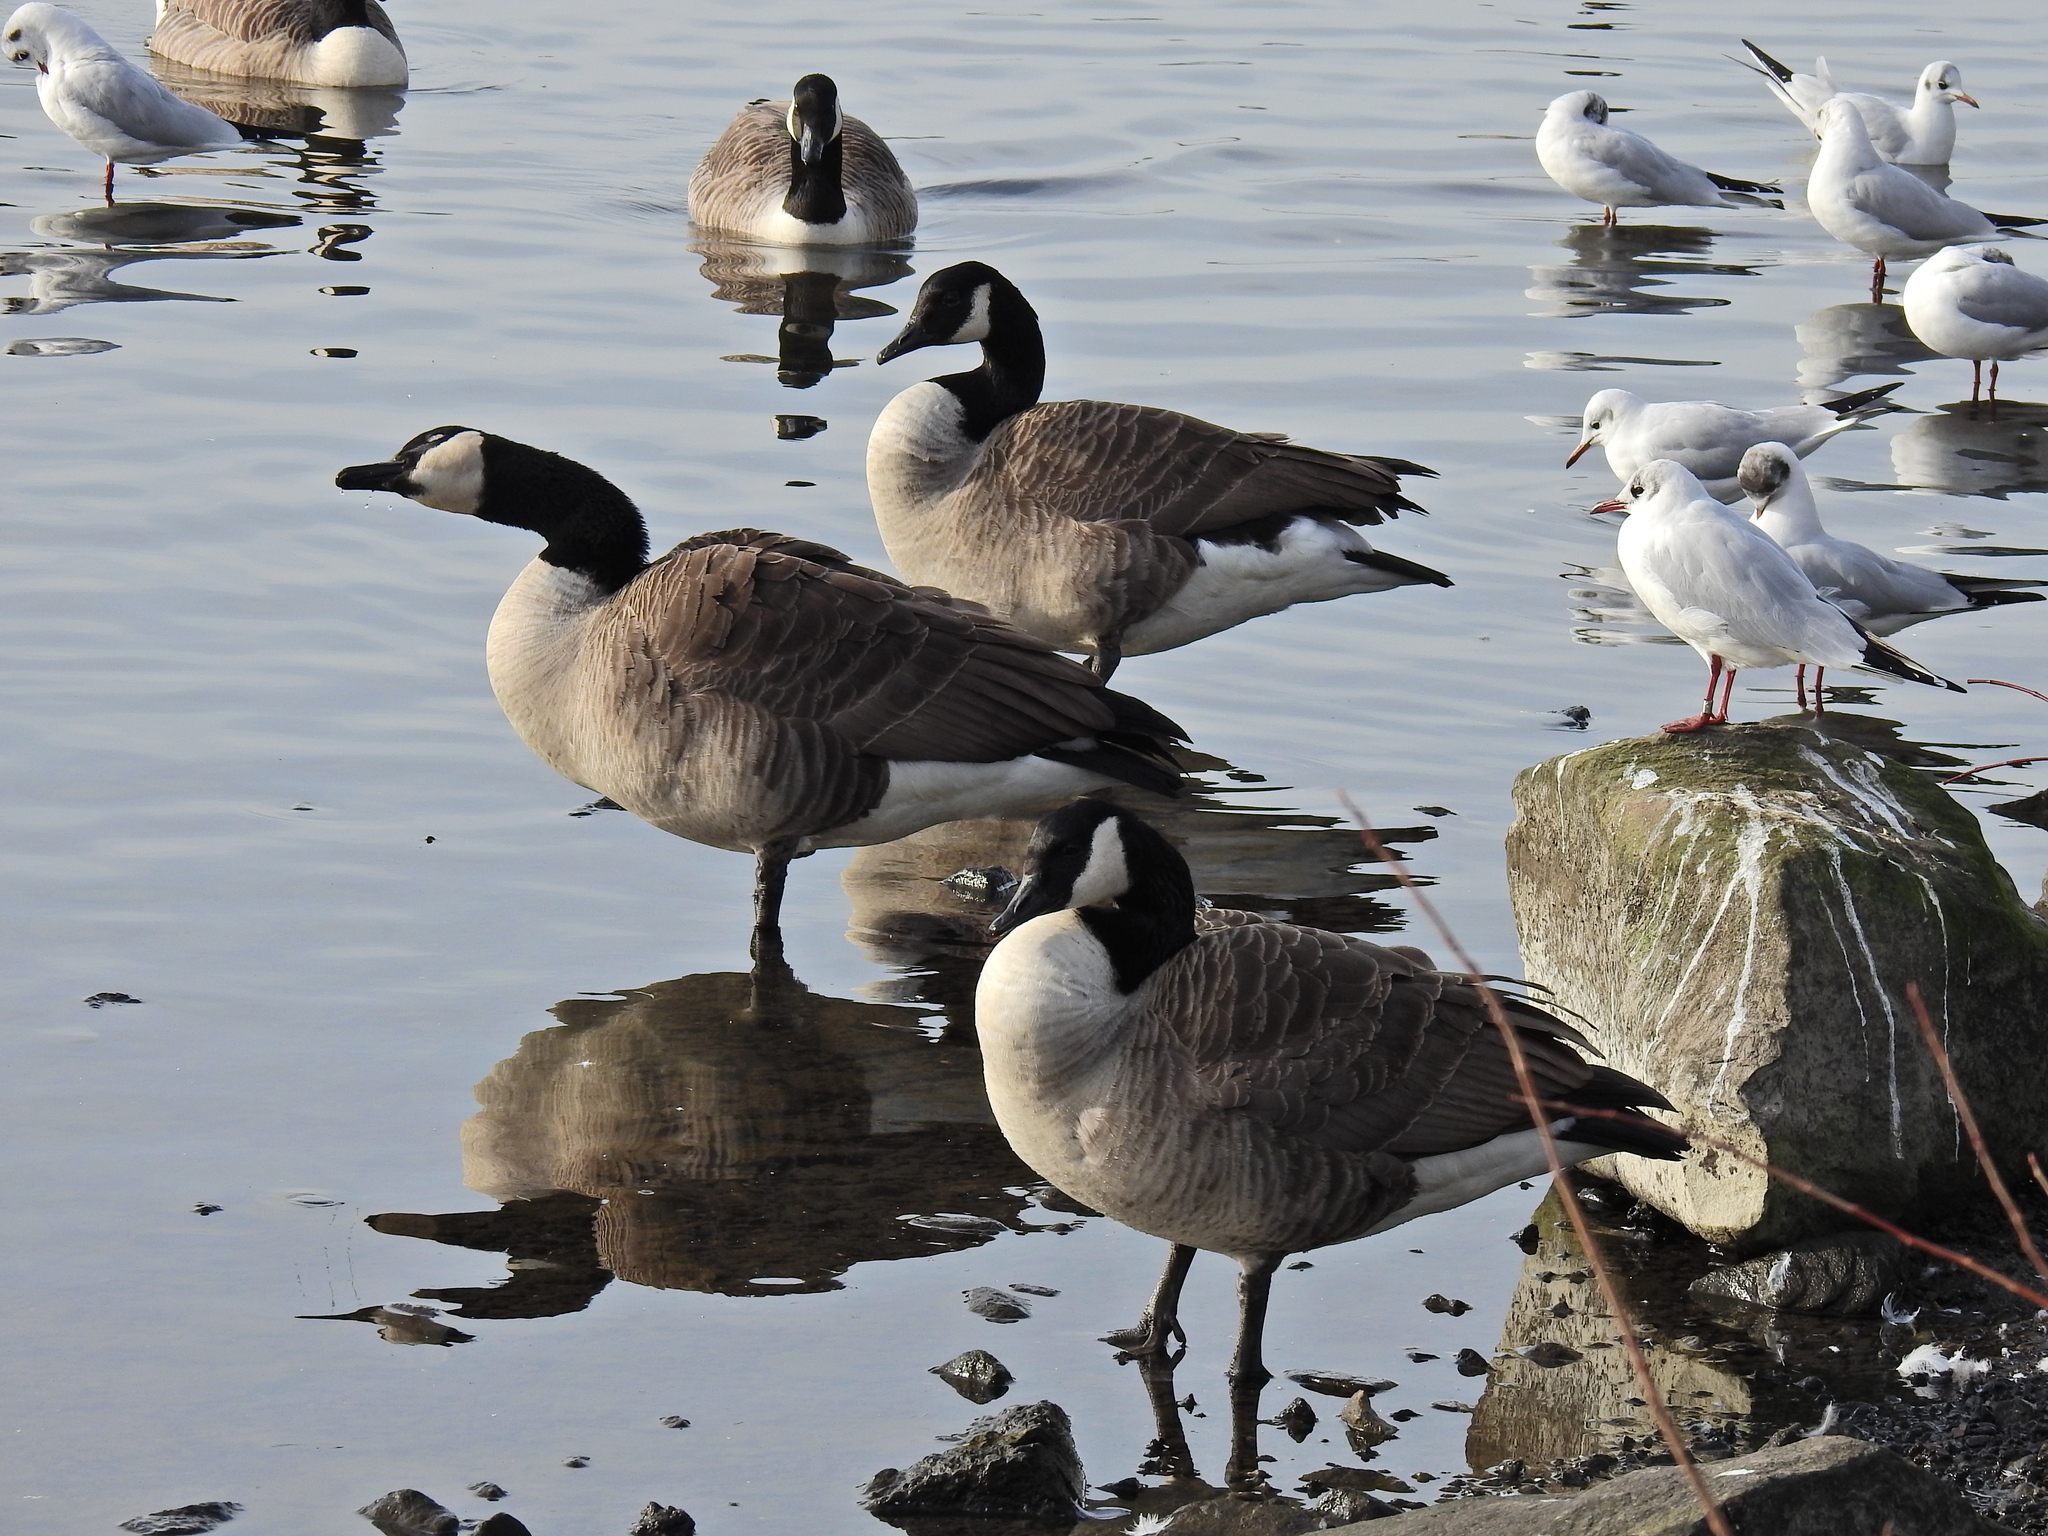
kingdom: Animalia
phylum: Chordata
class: Aves
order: Anseriformes
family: Anatidae
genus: Branta
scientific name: Branta canadensis
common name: Canada goose
